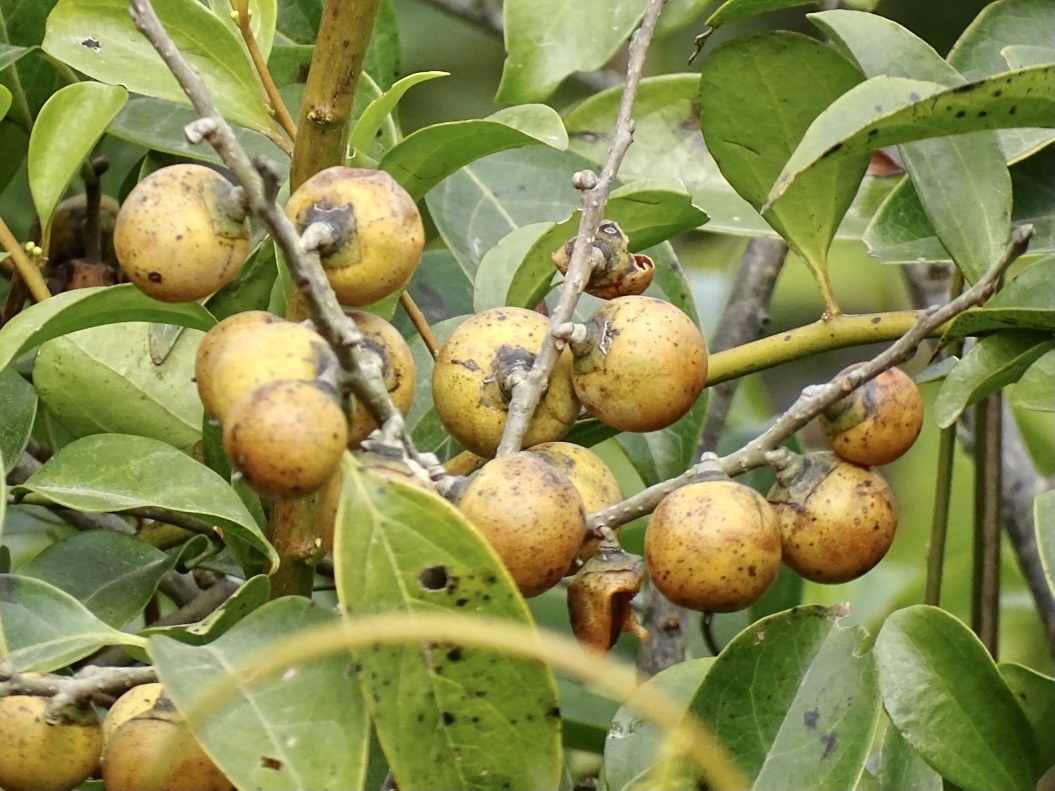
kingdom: Plantae
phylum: Tracheophyta
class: Magnoliopsida
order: Ericales
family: Ebenaceae
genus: Diospyros
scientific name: Diospyros morrisiana
